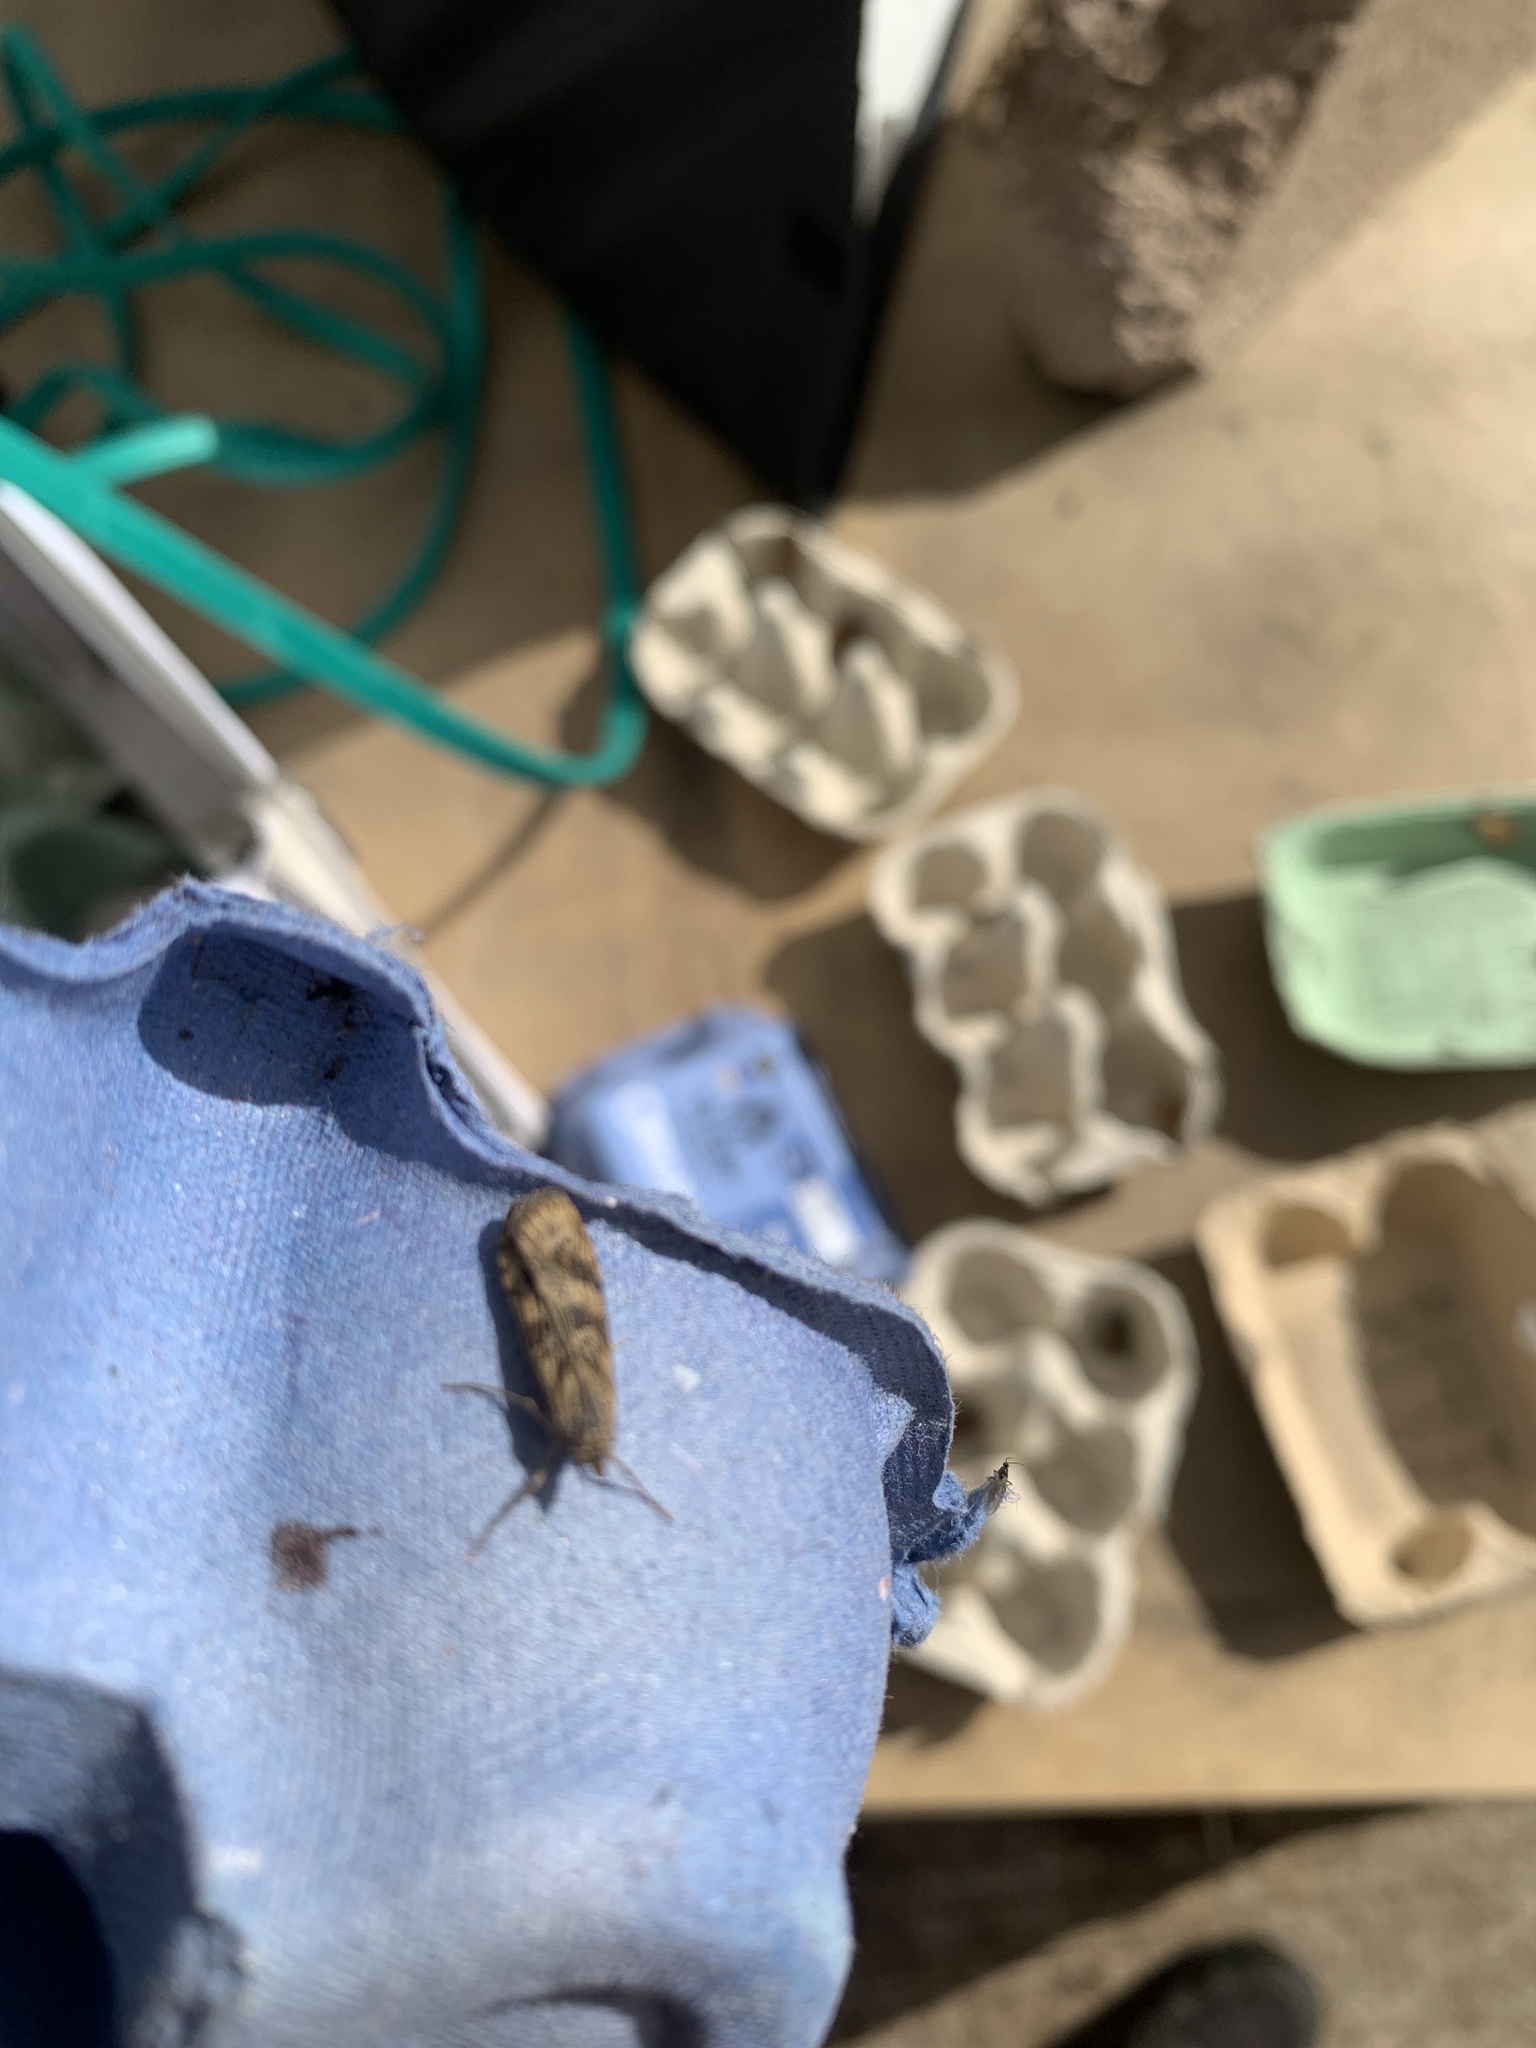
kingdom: Animalia
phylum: Arthropoda
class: Insecta
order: Lepidoptera
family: Crambidae
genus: Nomophila
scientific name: Nomophila noctuella
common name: Rush veneer
